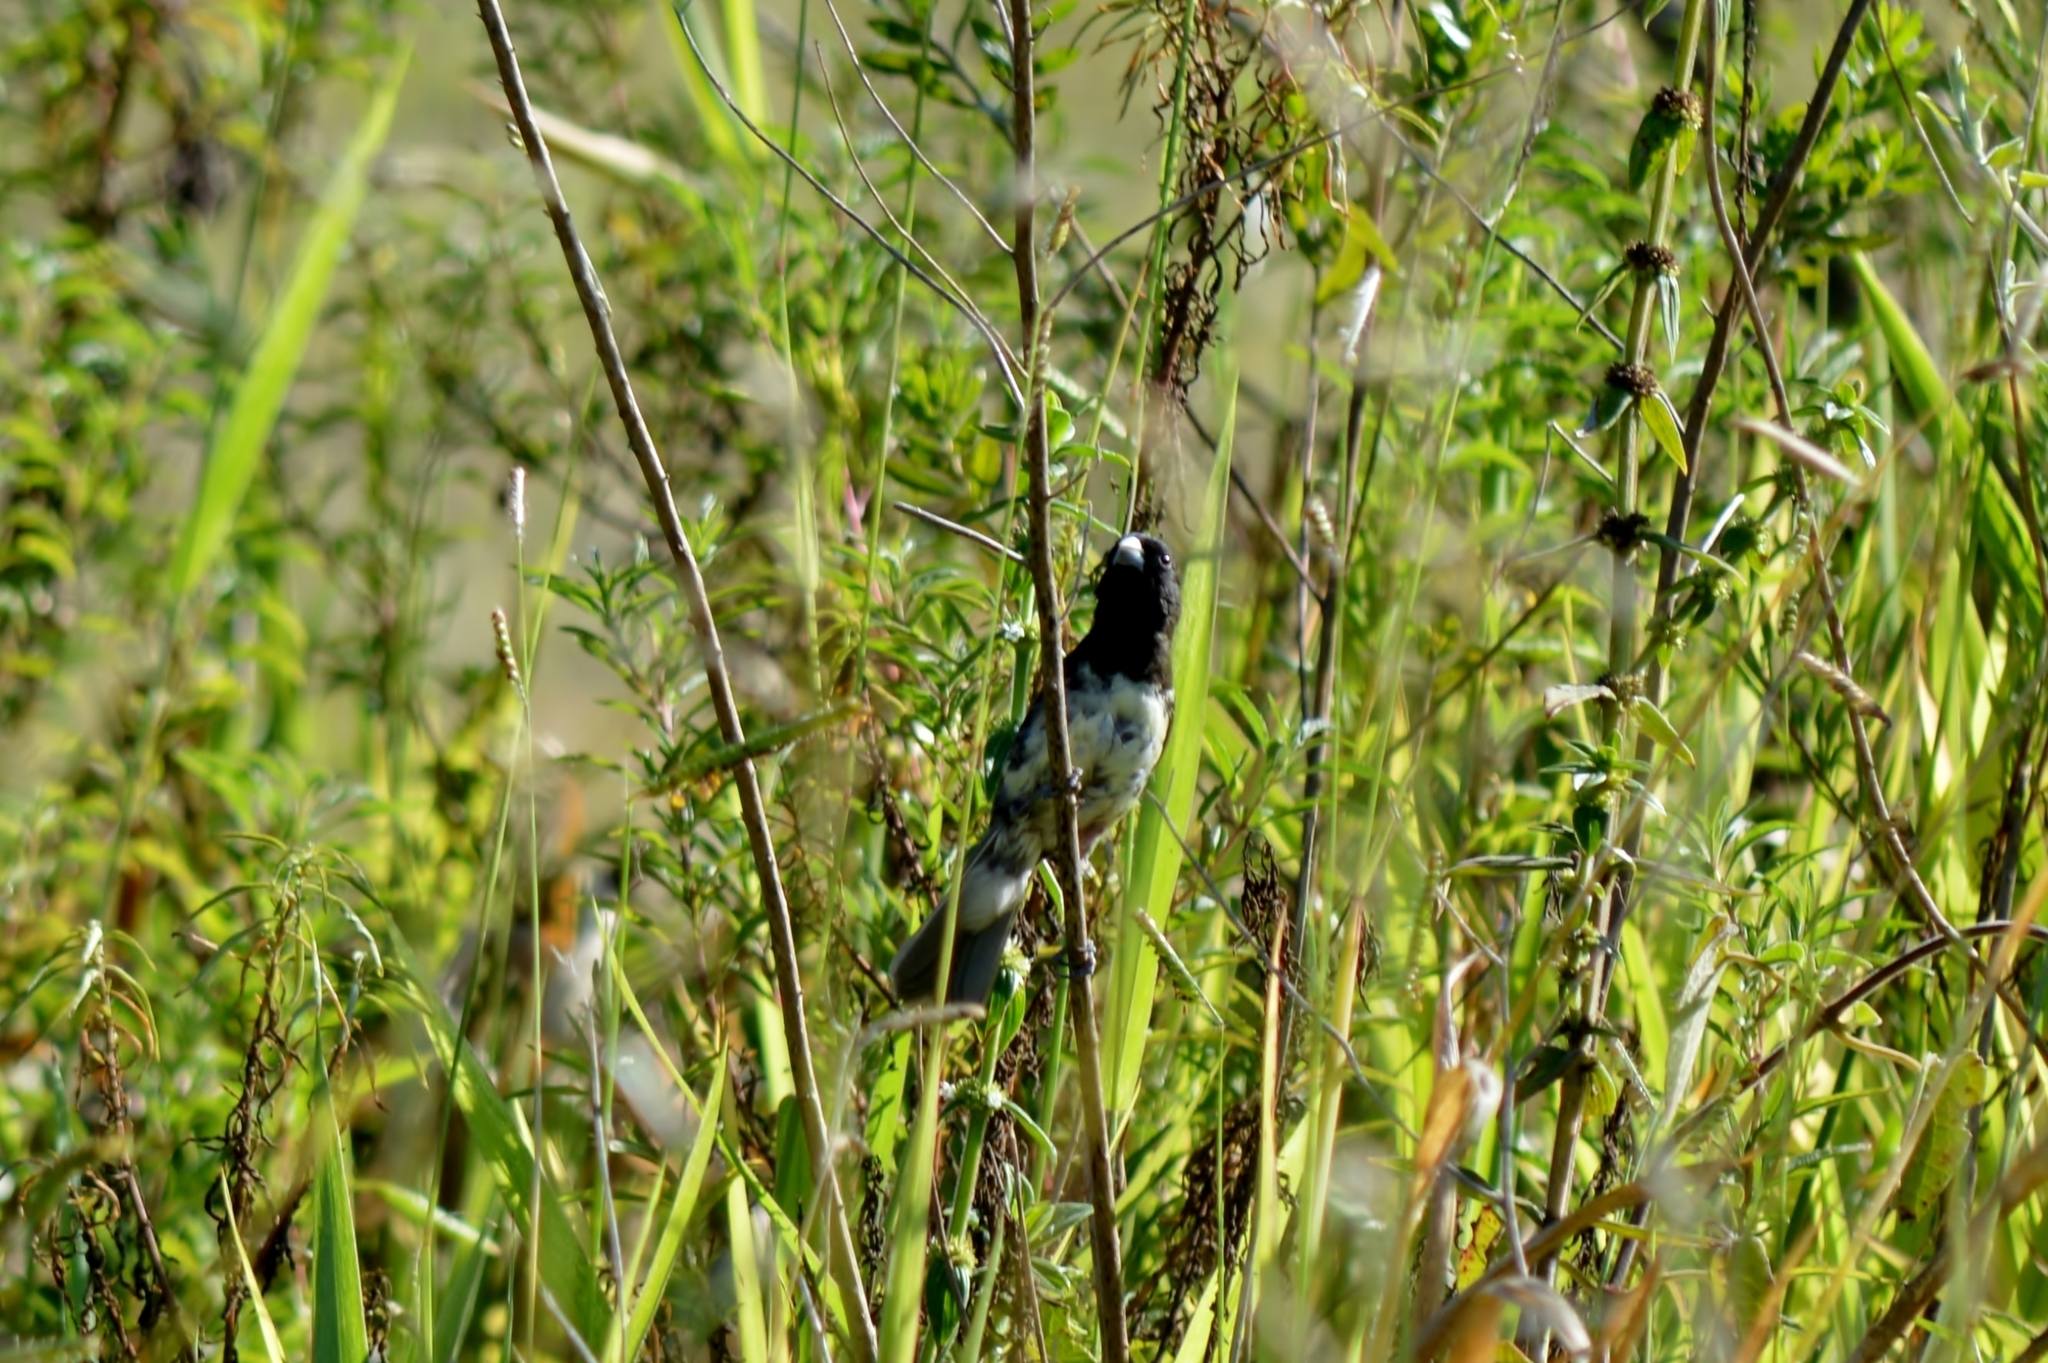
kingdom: Animalia
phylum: Chordata
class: Aves
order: Passeriformes
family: Thraupidae
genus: Sporophila
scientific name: Sporophila nigricollis
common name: Yellow-bellied seedeater
